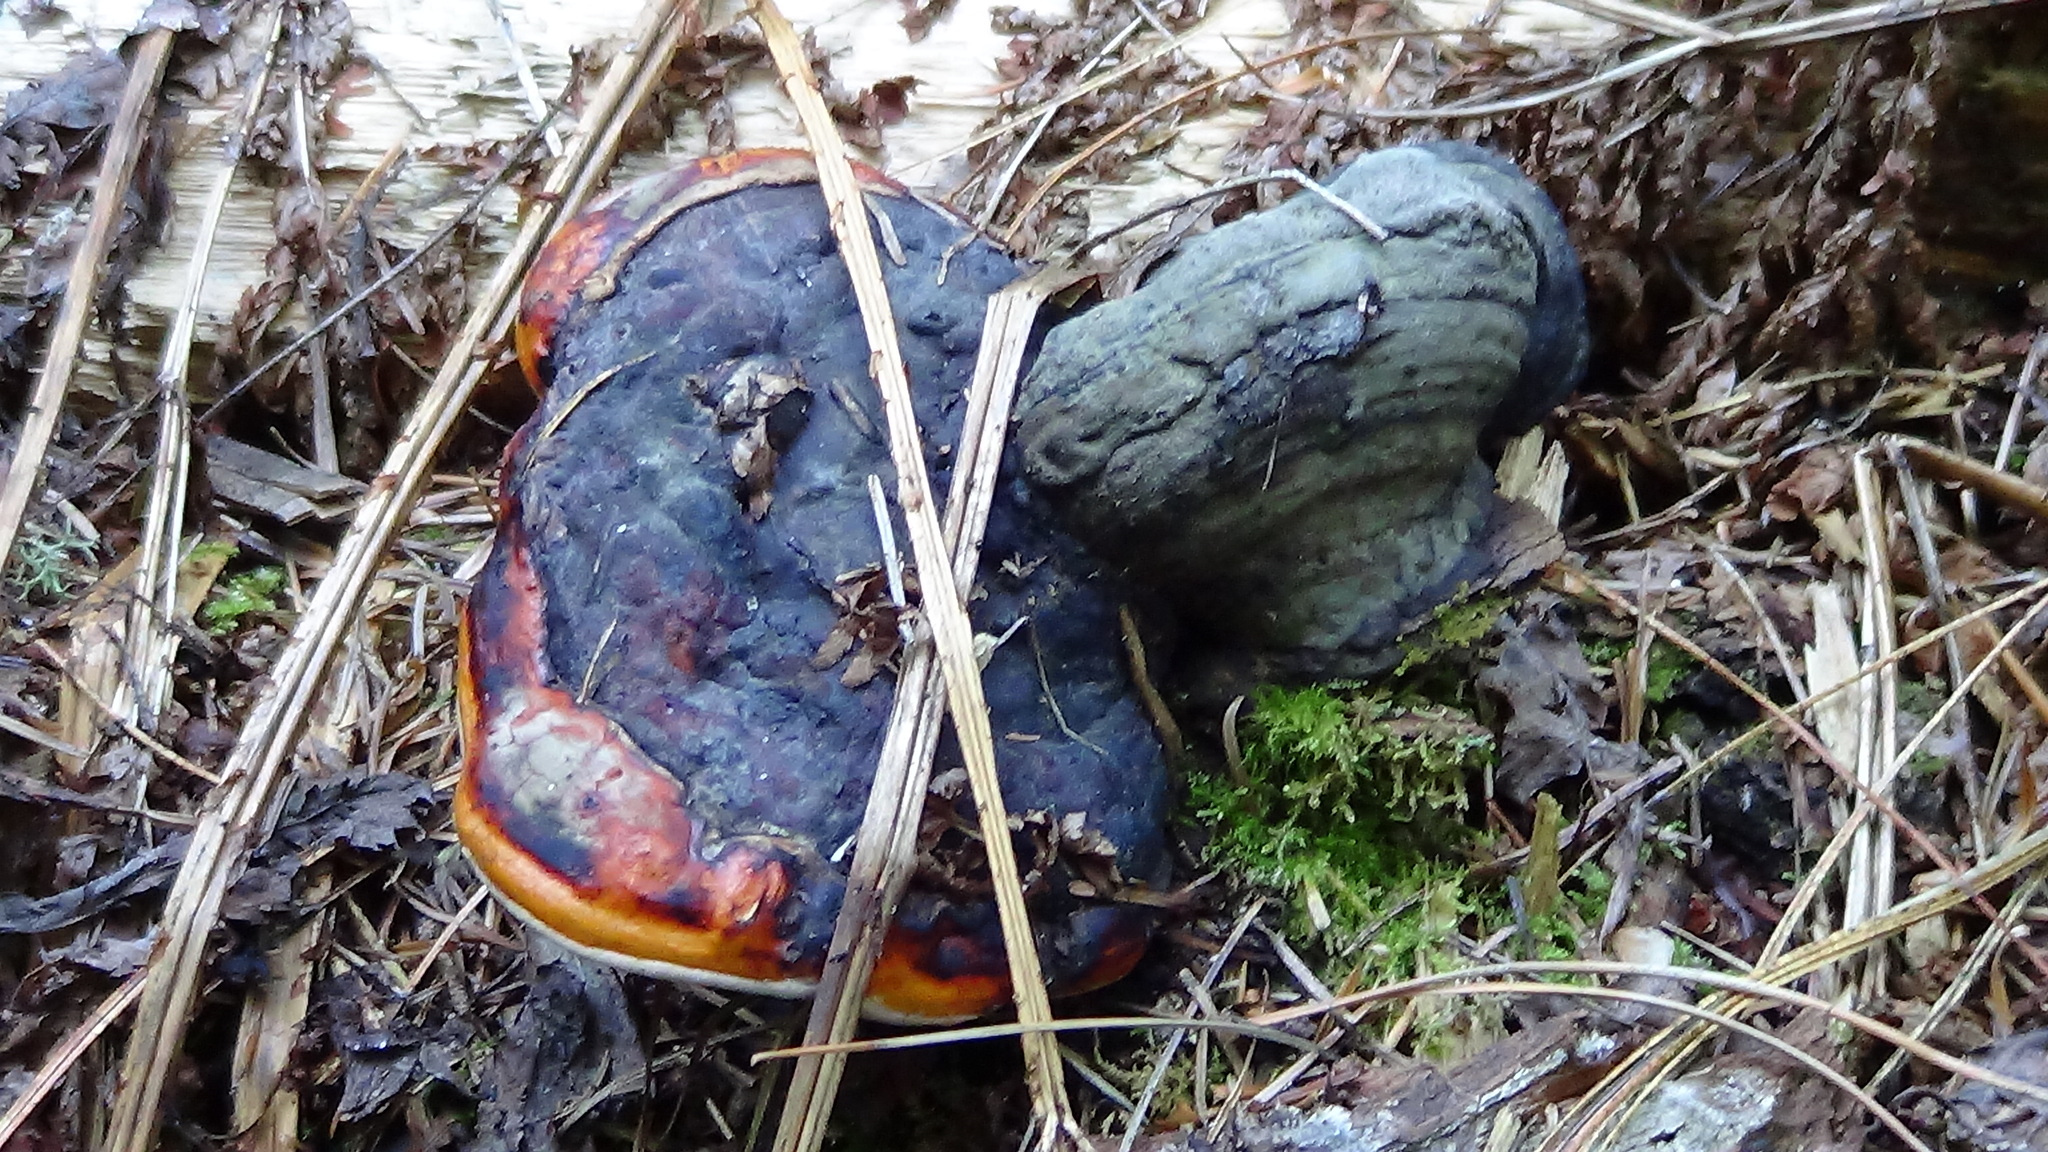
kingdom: Fungi
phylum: Basidiomycota
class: Agaricomycetes
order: Polyporales
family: Fomitopsidaceae
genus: Fomitopsis
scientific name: Fomitopsis pinicola
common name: Red-belted bracket
